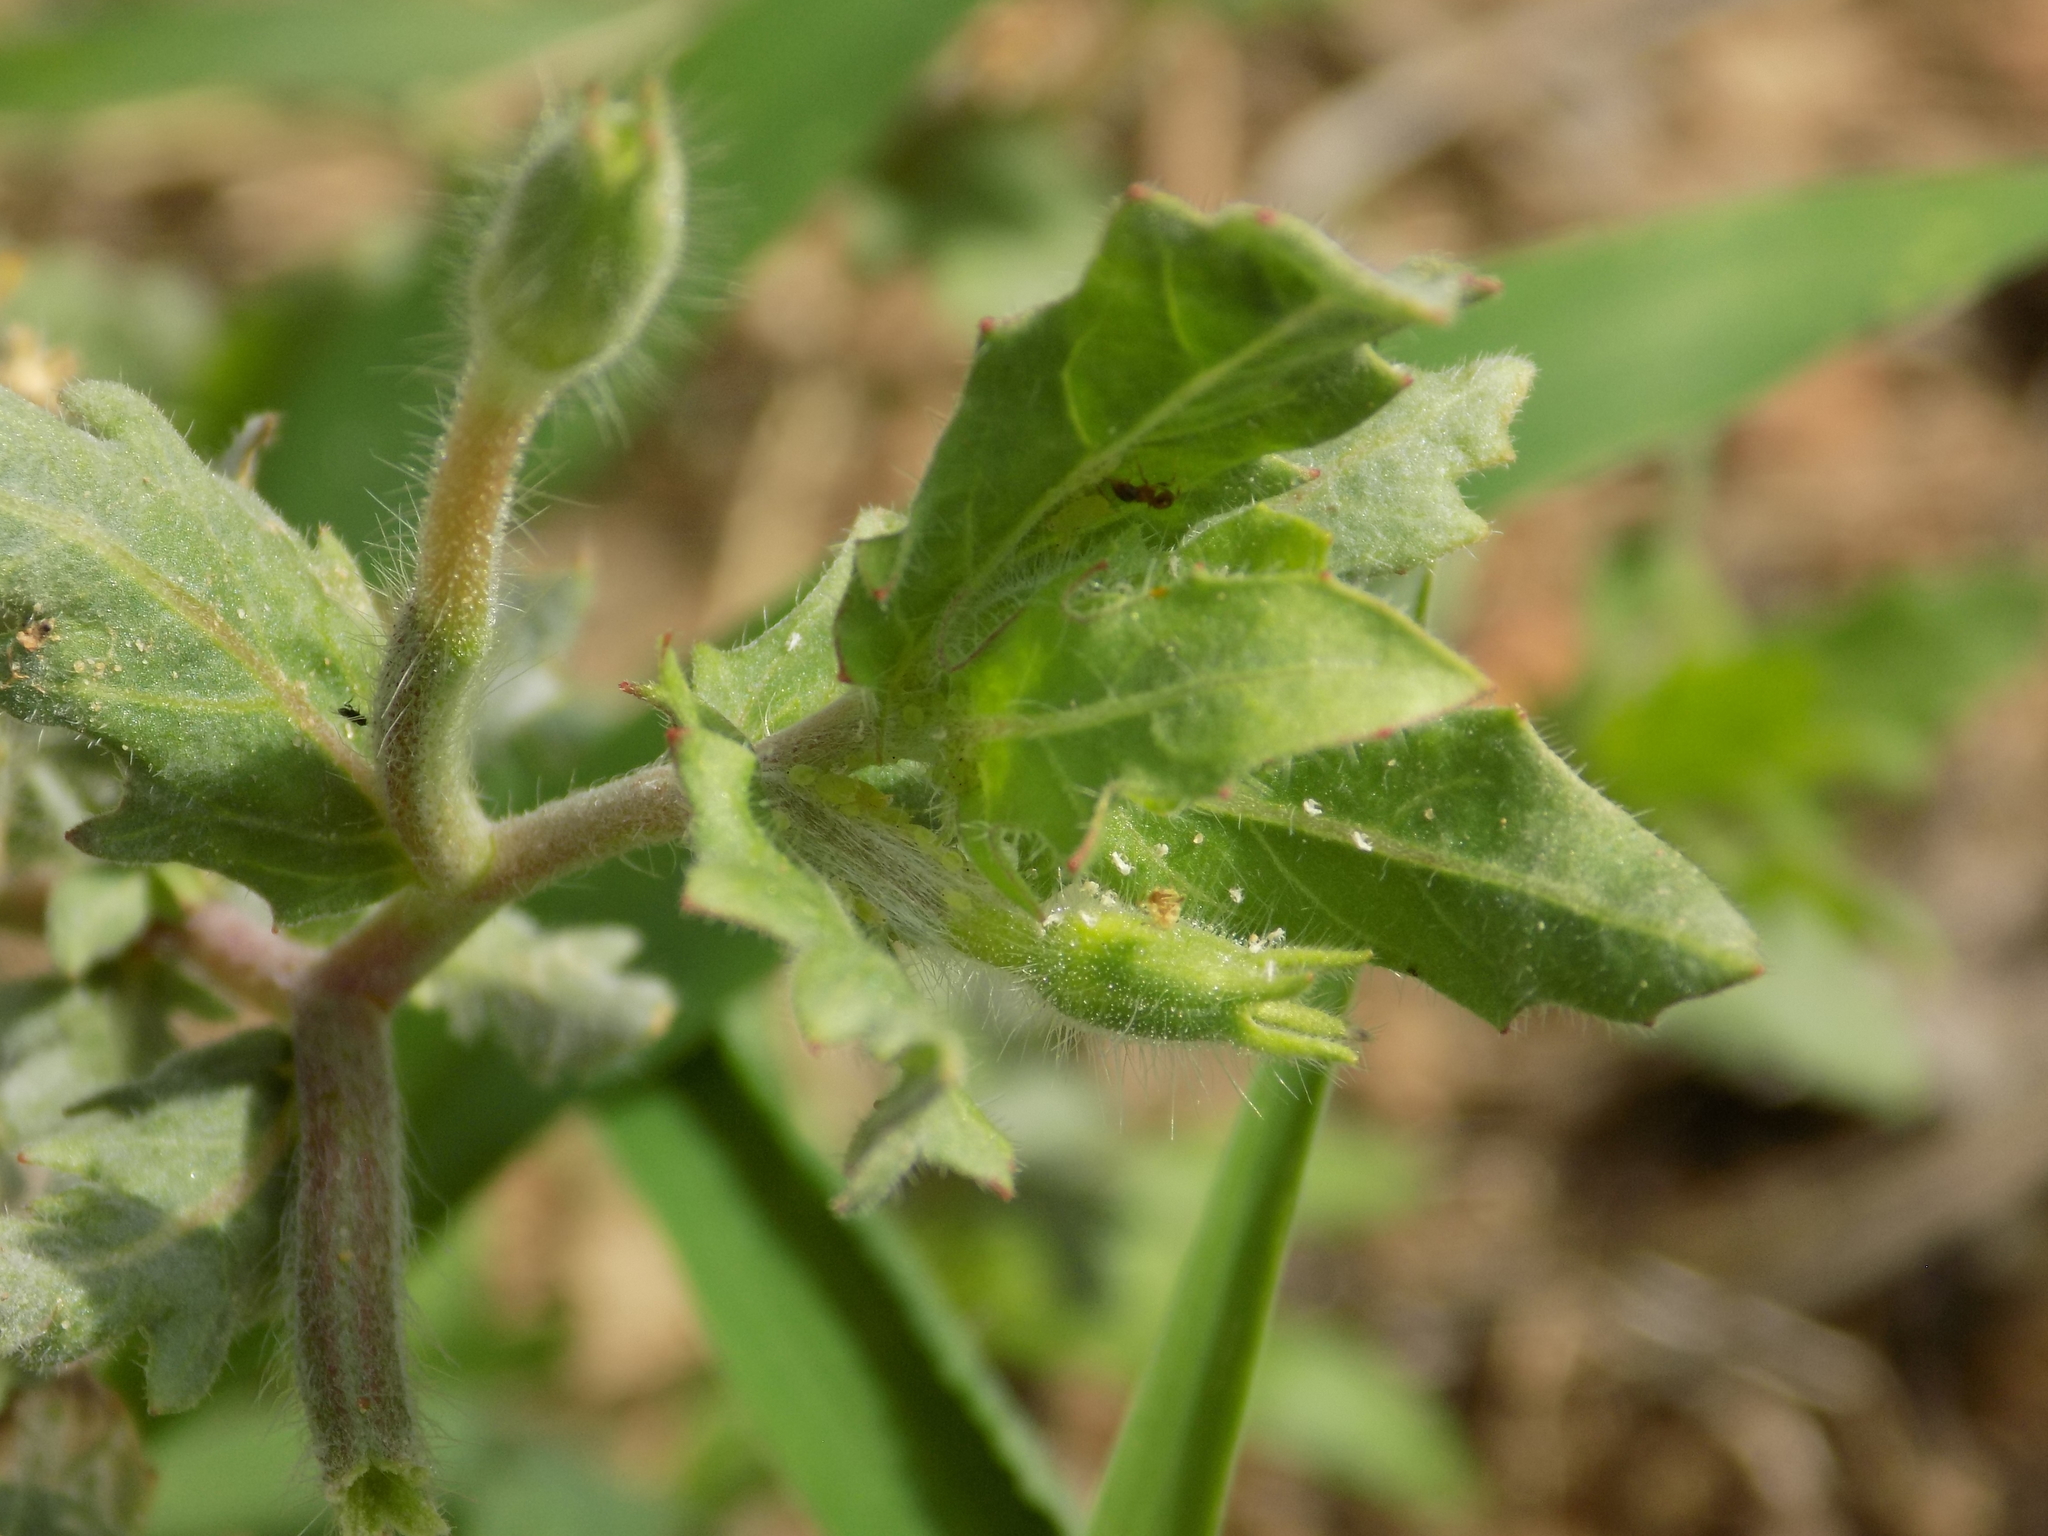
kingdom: Plantae
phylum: Tracheophyta
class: Magnoliopsida
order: Myrtales
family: Onagraceae
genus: Oenothera
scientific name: Oenothera laciniata
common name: Cut-leaved evening-primrose
